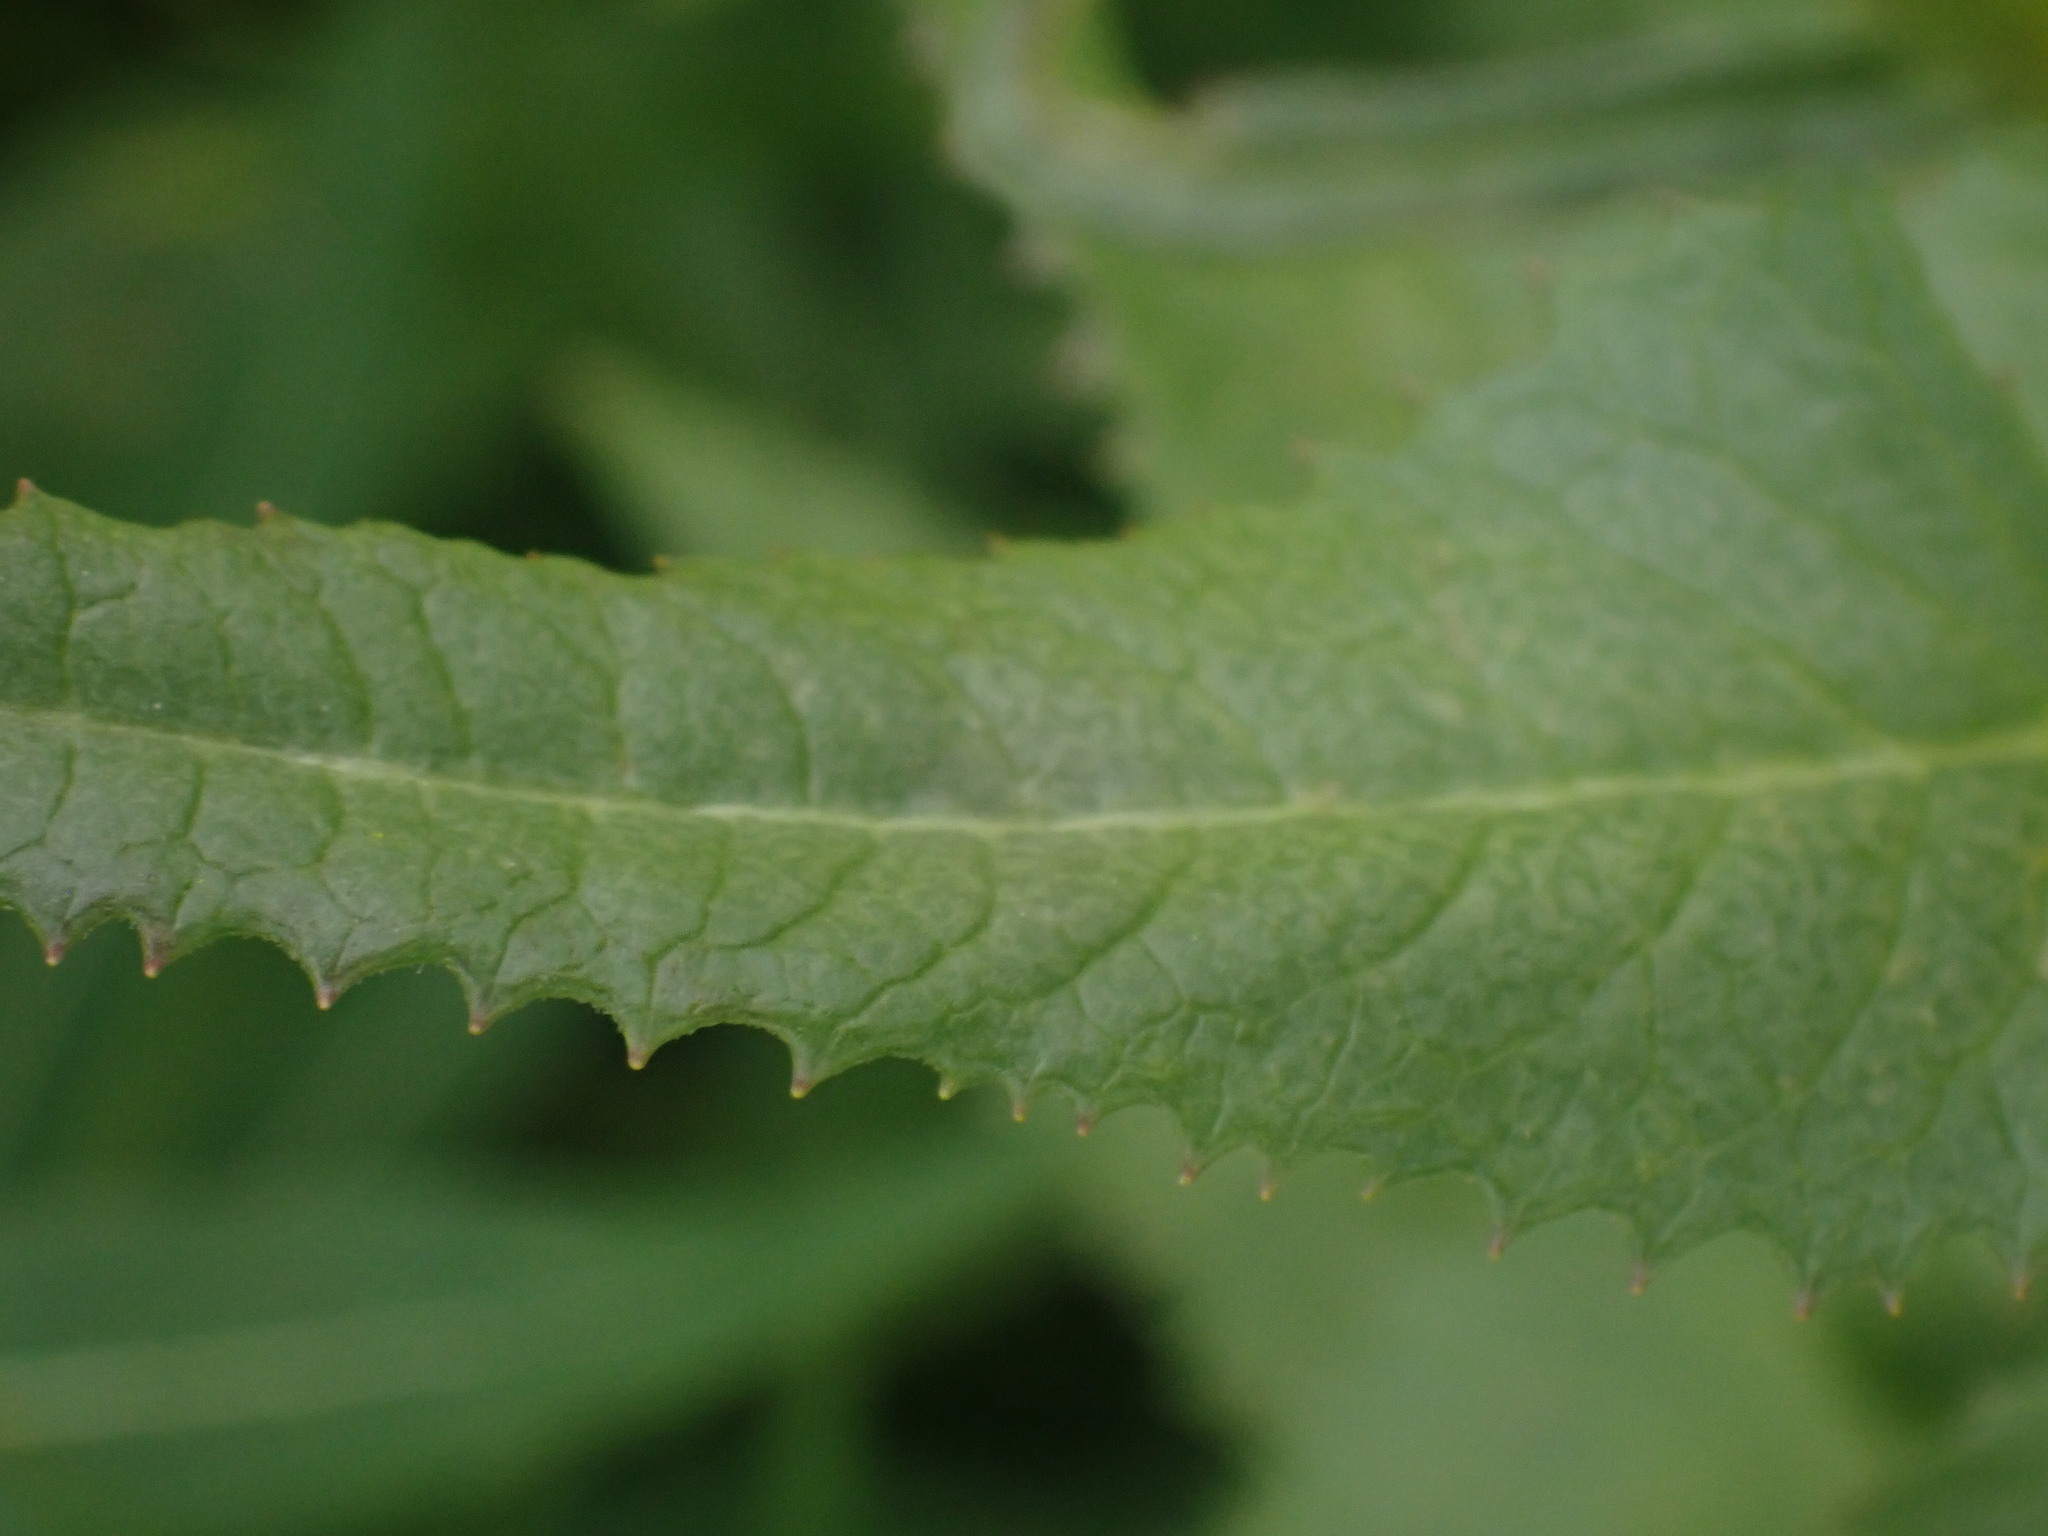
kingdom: Plantae
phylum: Tracheophyta
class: Magnoliopsida
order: Asterales
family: Asteraceae
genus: Senecio
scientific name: Senecio triangularis
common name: Arrowleaf butterweed
